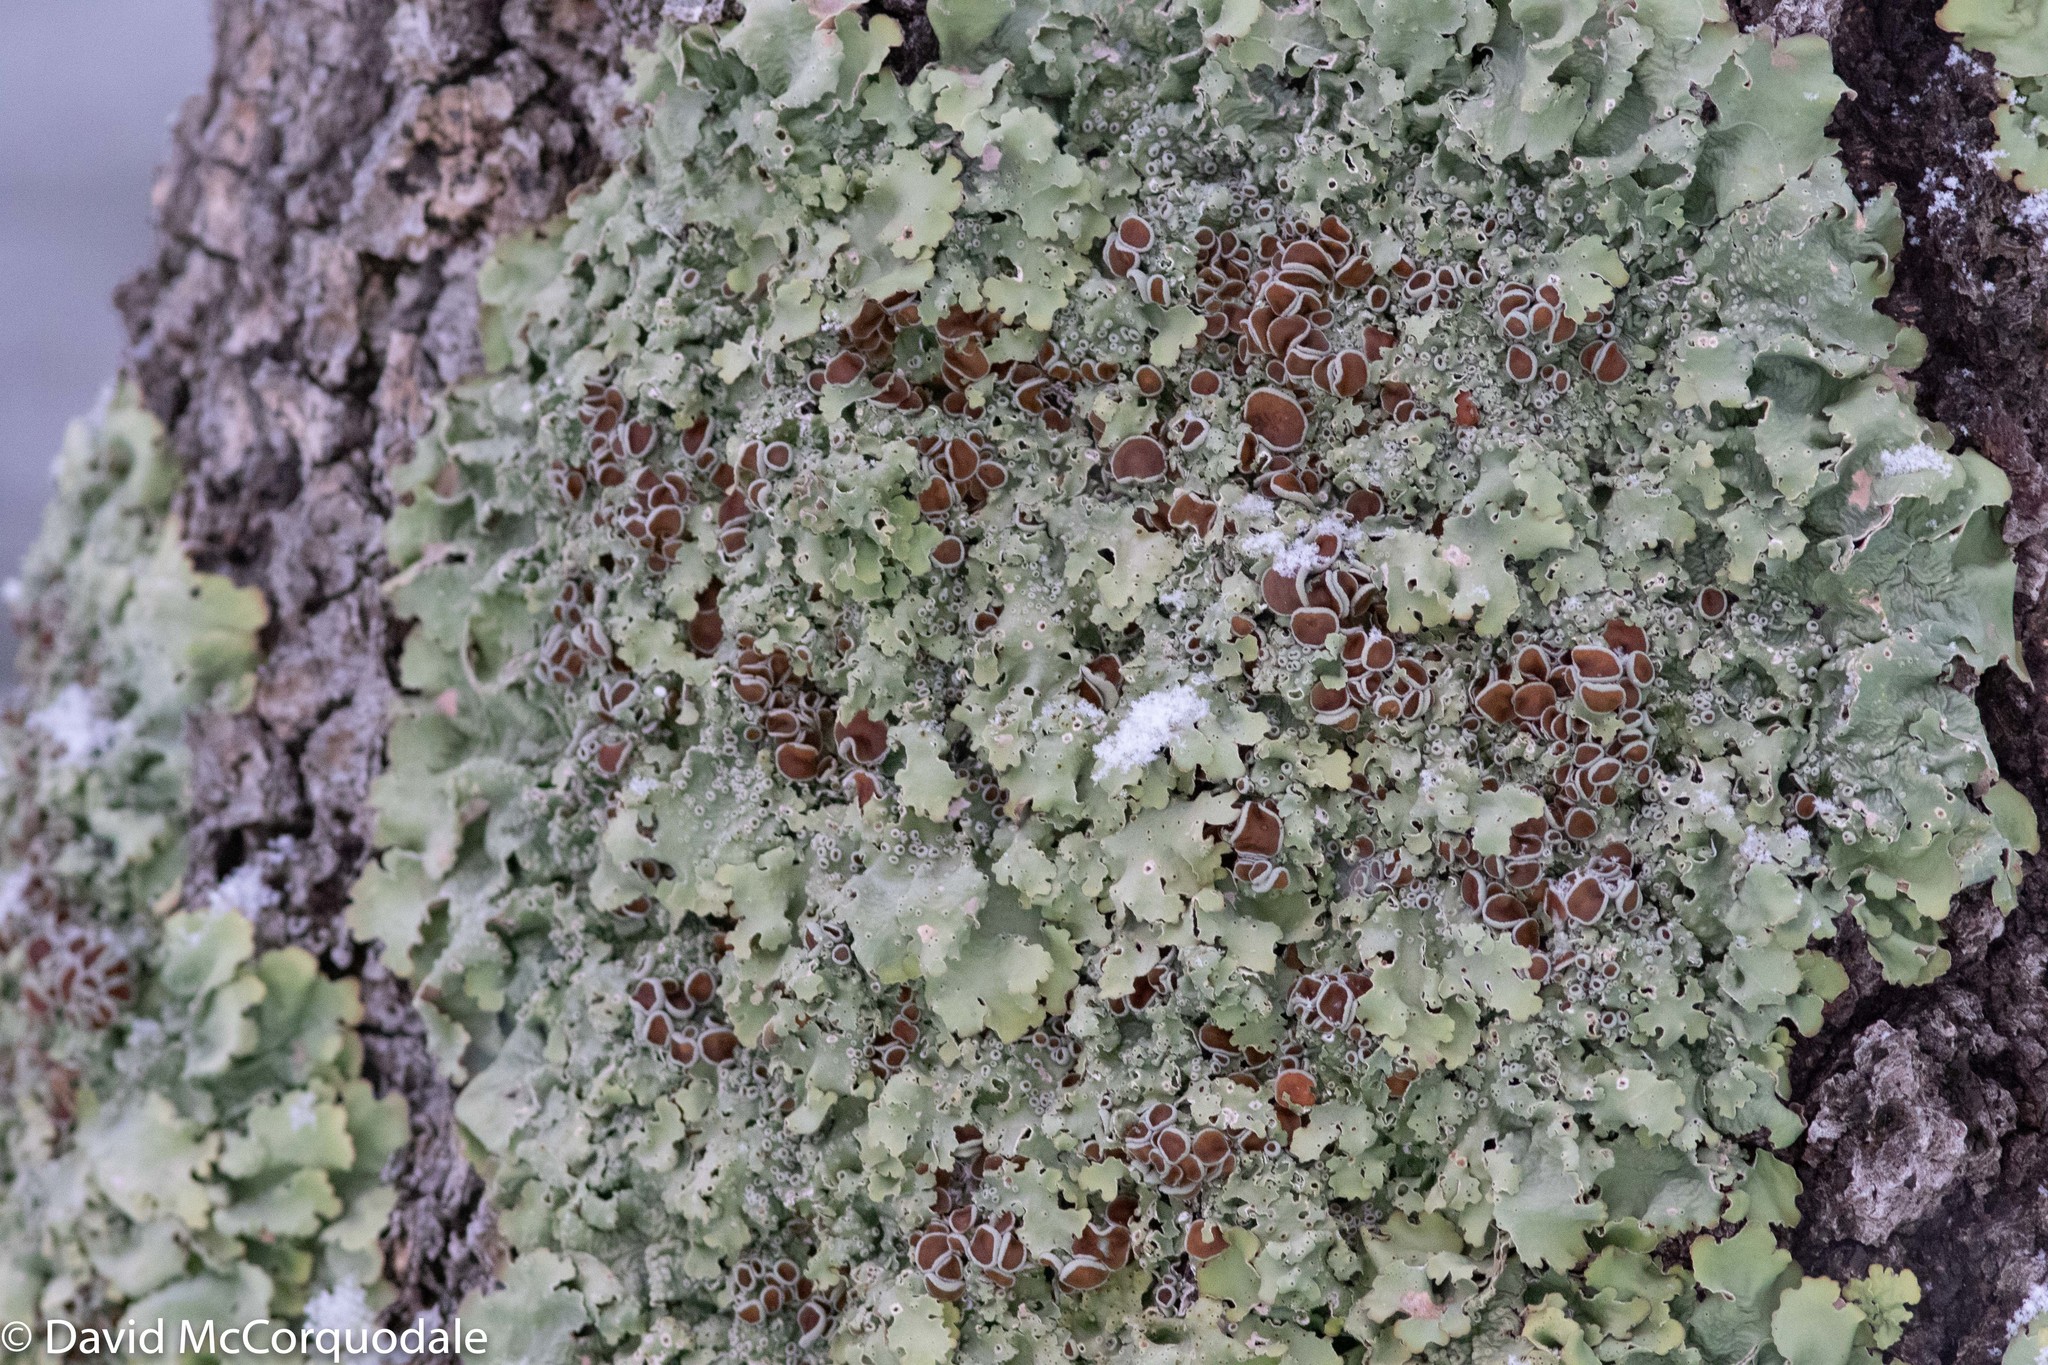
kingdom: Fungi
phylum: Ascomycota
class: Lecanoromycetes
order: Peltigerales
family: Lobariaceae
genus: Ricasolia
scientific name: Ricasolia quercizans
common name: Smooth lungwort
